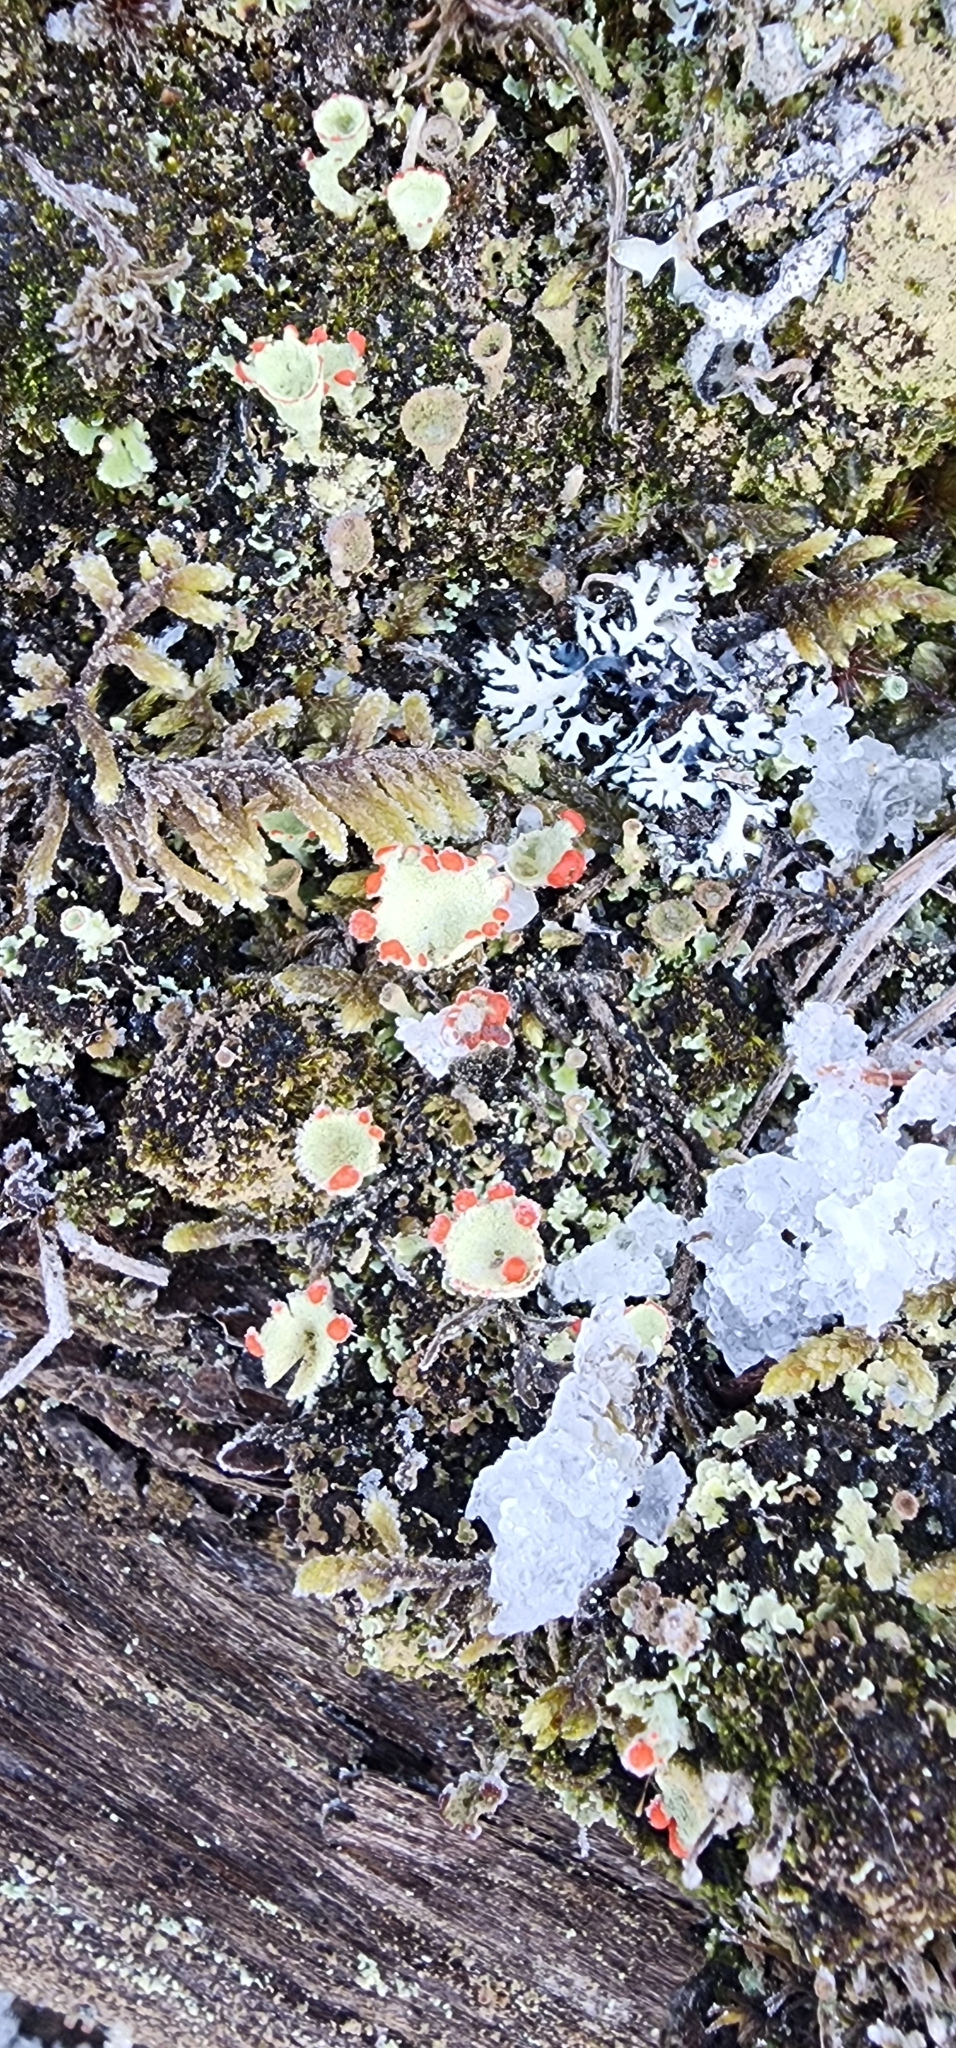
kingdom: Fungi
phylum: Ascomycota
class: Lecanoromycetes
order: Lecanorales
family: Cladoniaceae
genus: Cladonia
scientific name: Cladonia pleurota
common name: Red-fruited pixie cup
